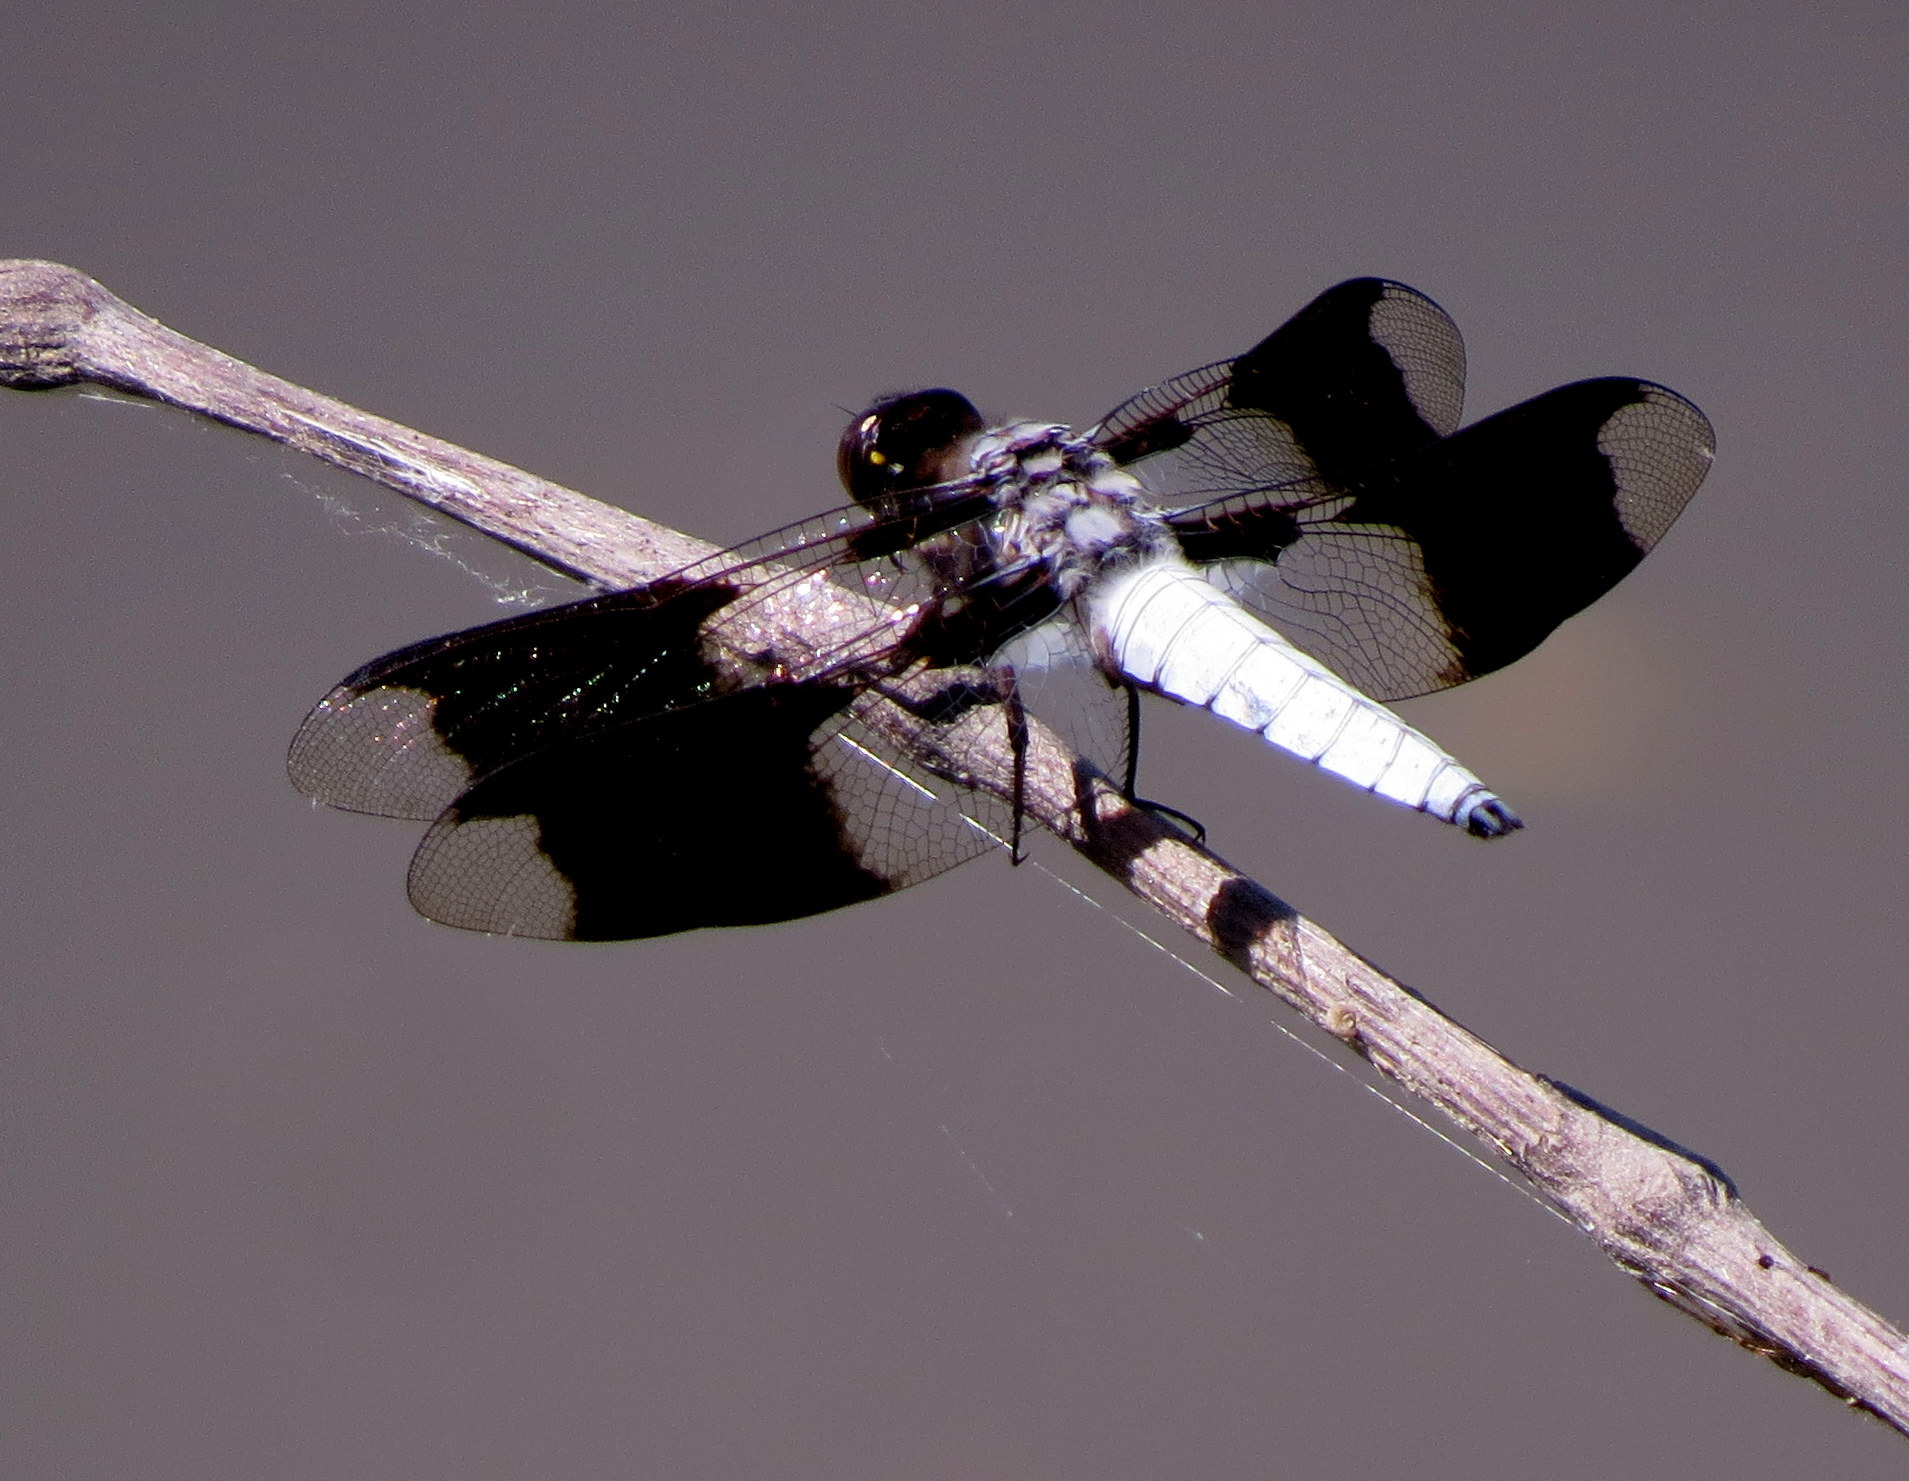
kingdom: Animalia
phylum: Arthropoda
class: Insecta
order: Odonata
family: Libellulidae
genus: Plathemis
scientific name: Plathemis lydia
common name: Common whitetail
